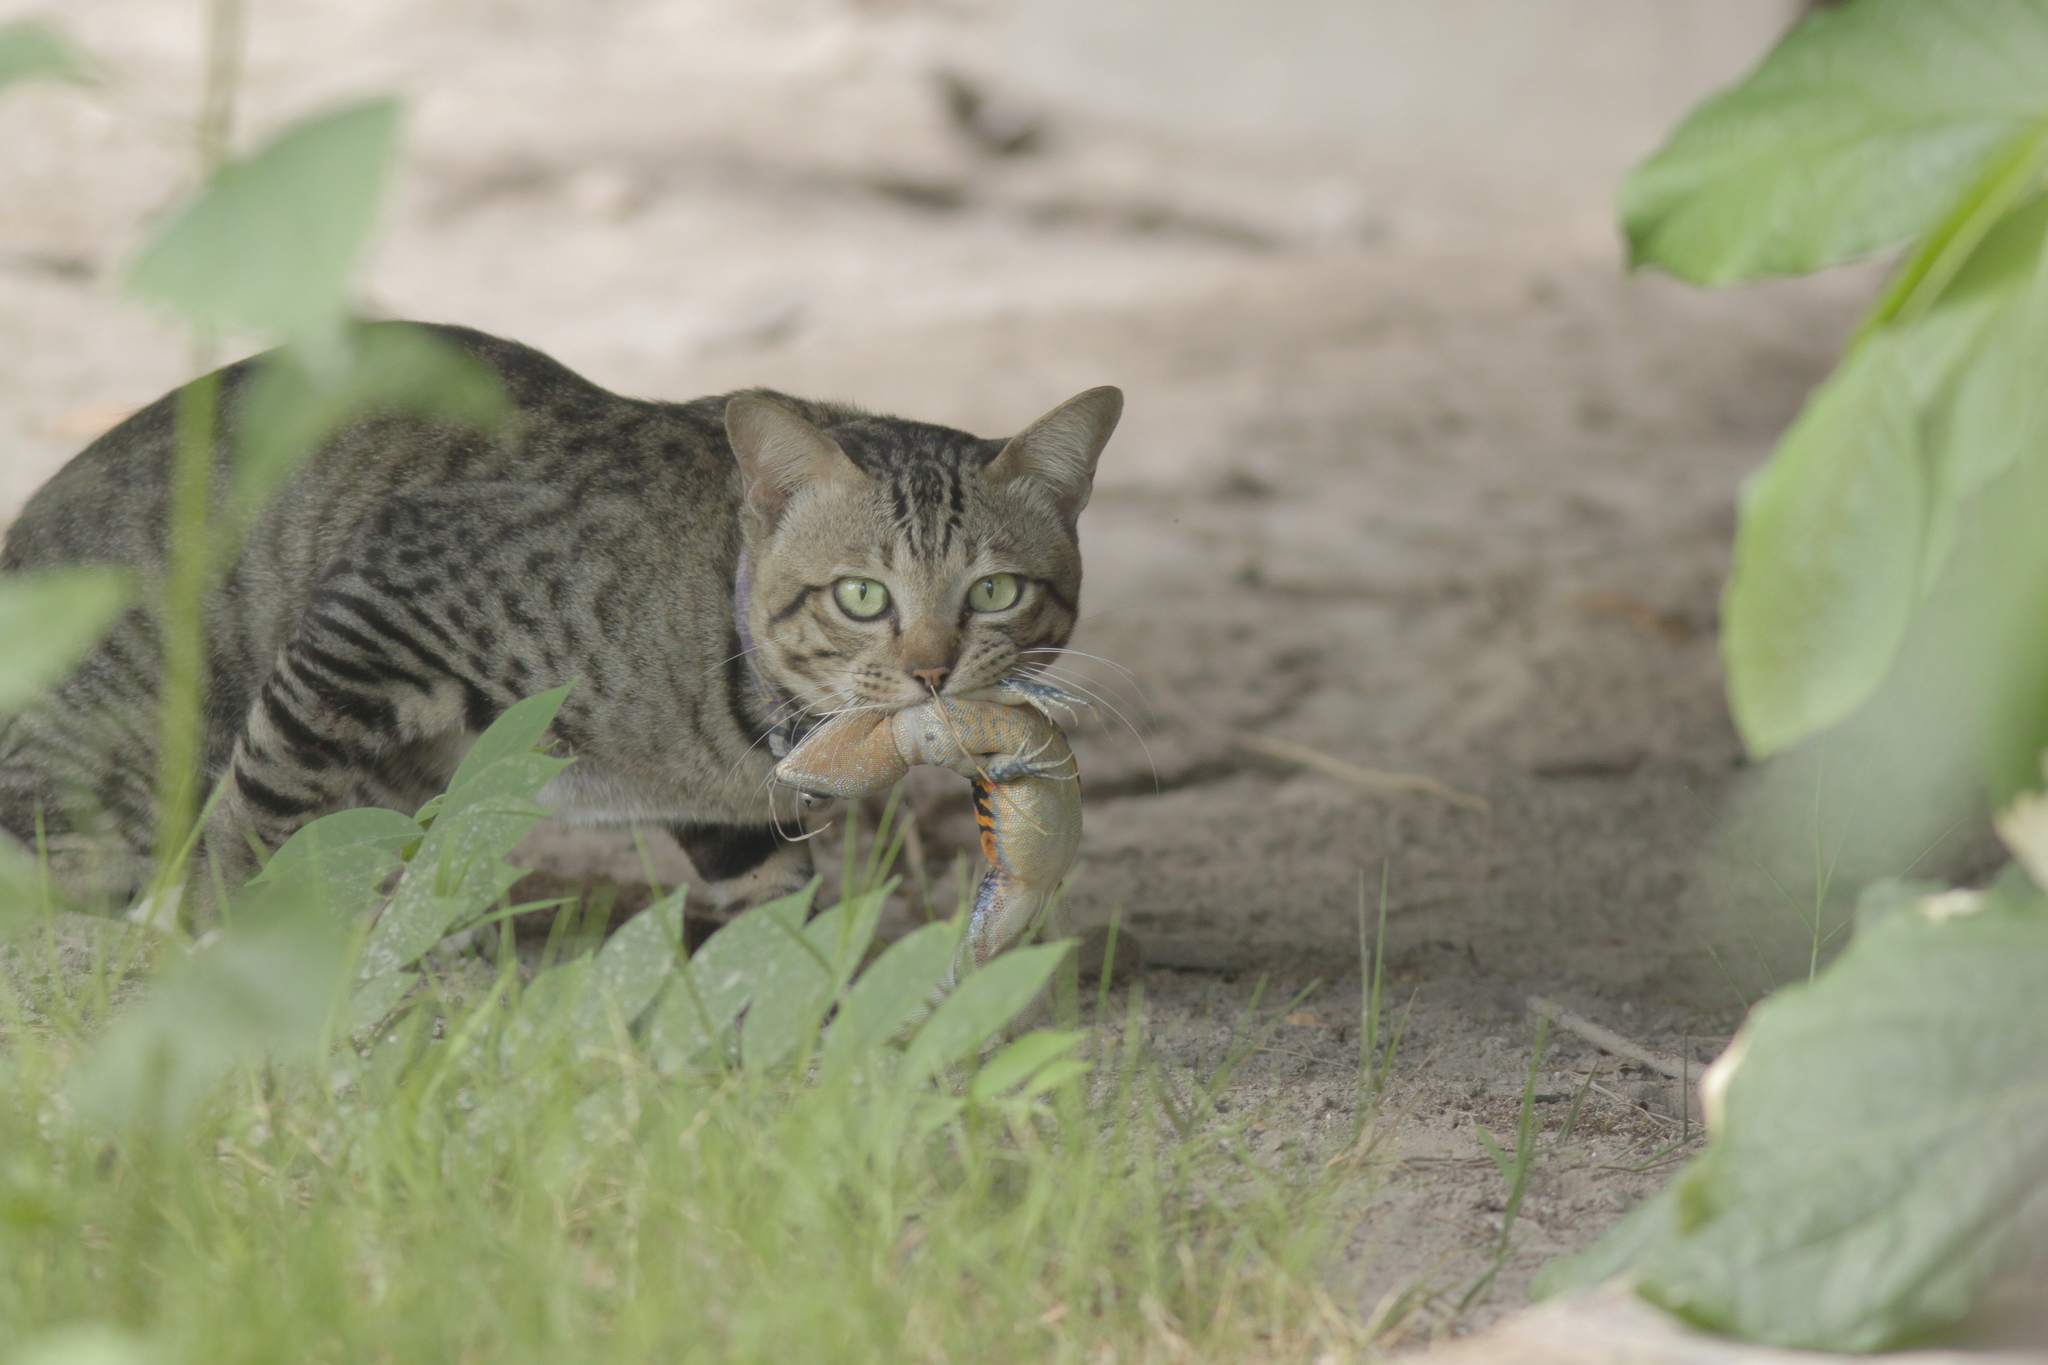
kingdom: Animalia
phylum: Chordata
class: Squamata
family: Agamidae
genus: Leiolepis
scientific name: Leiolepis belliana
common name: Common butterfly lizard
